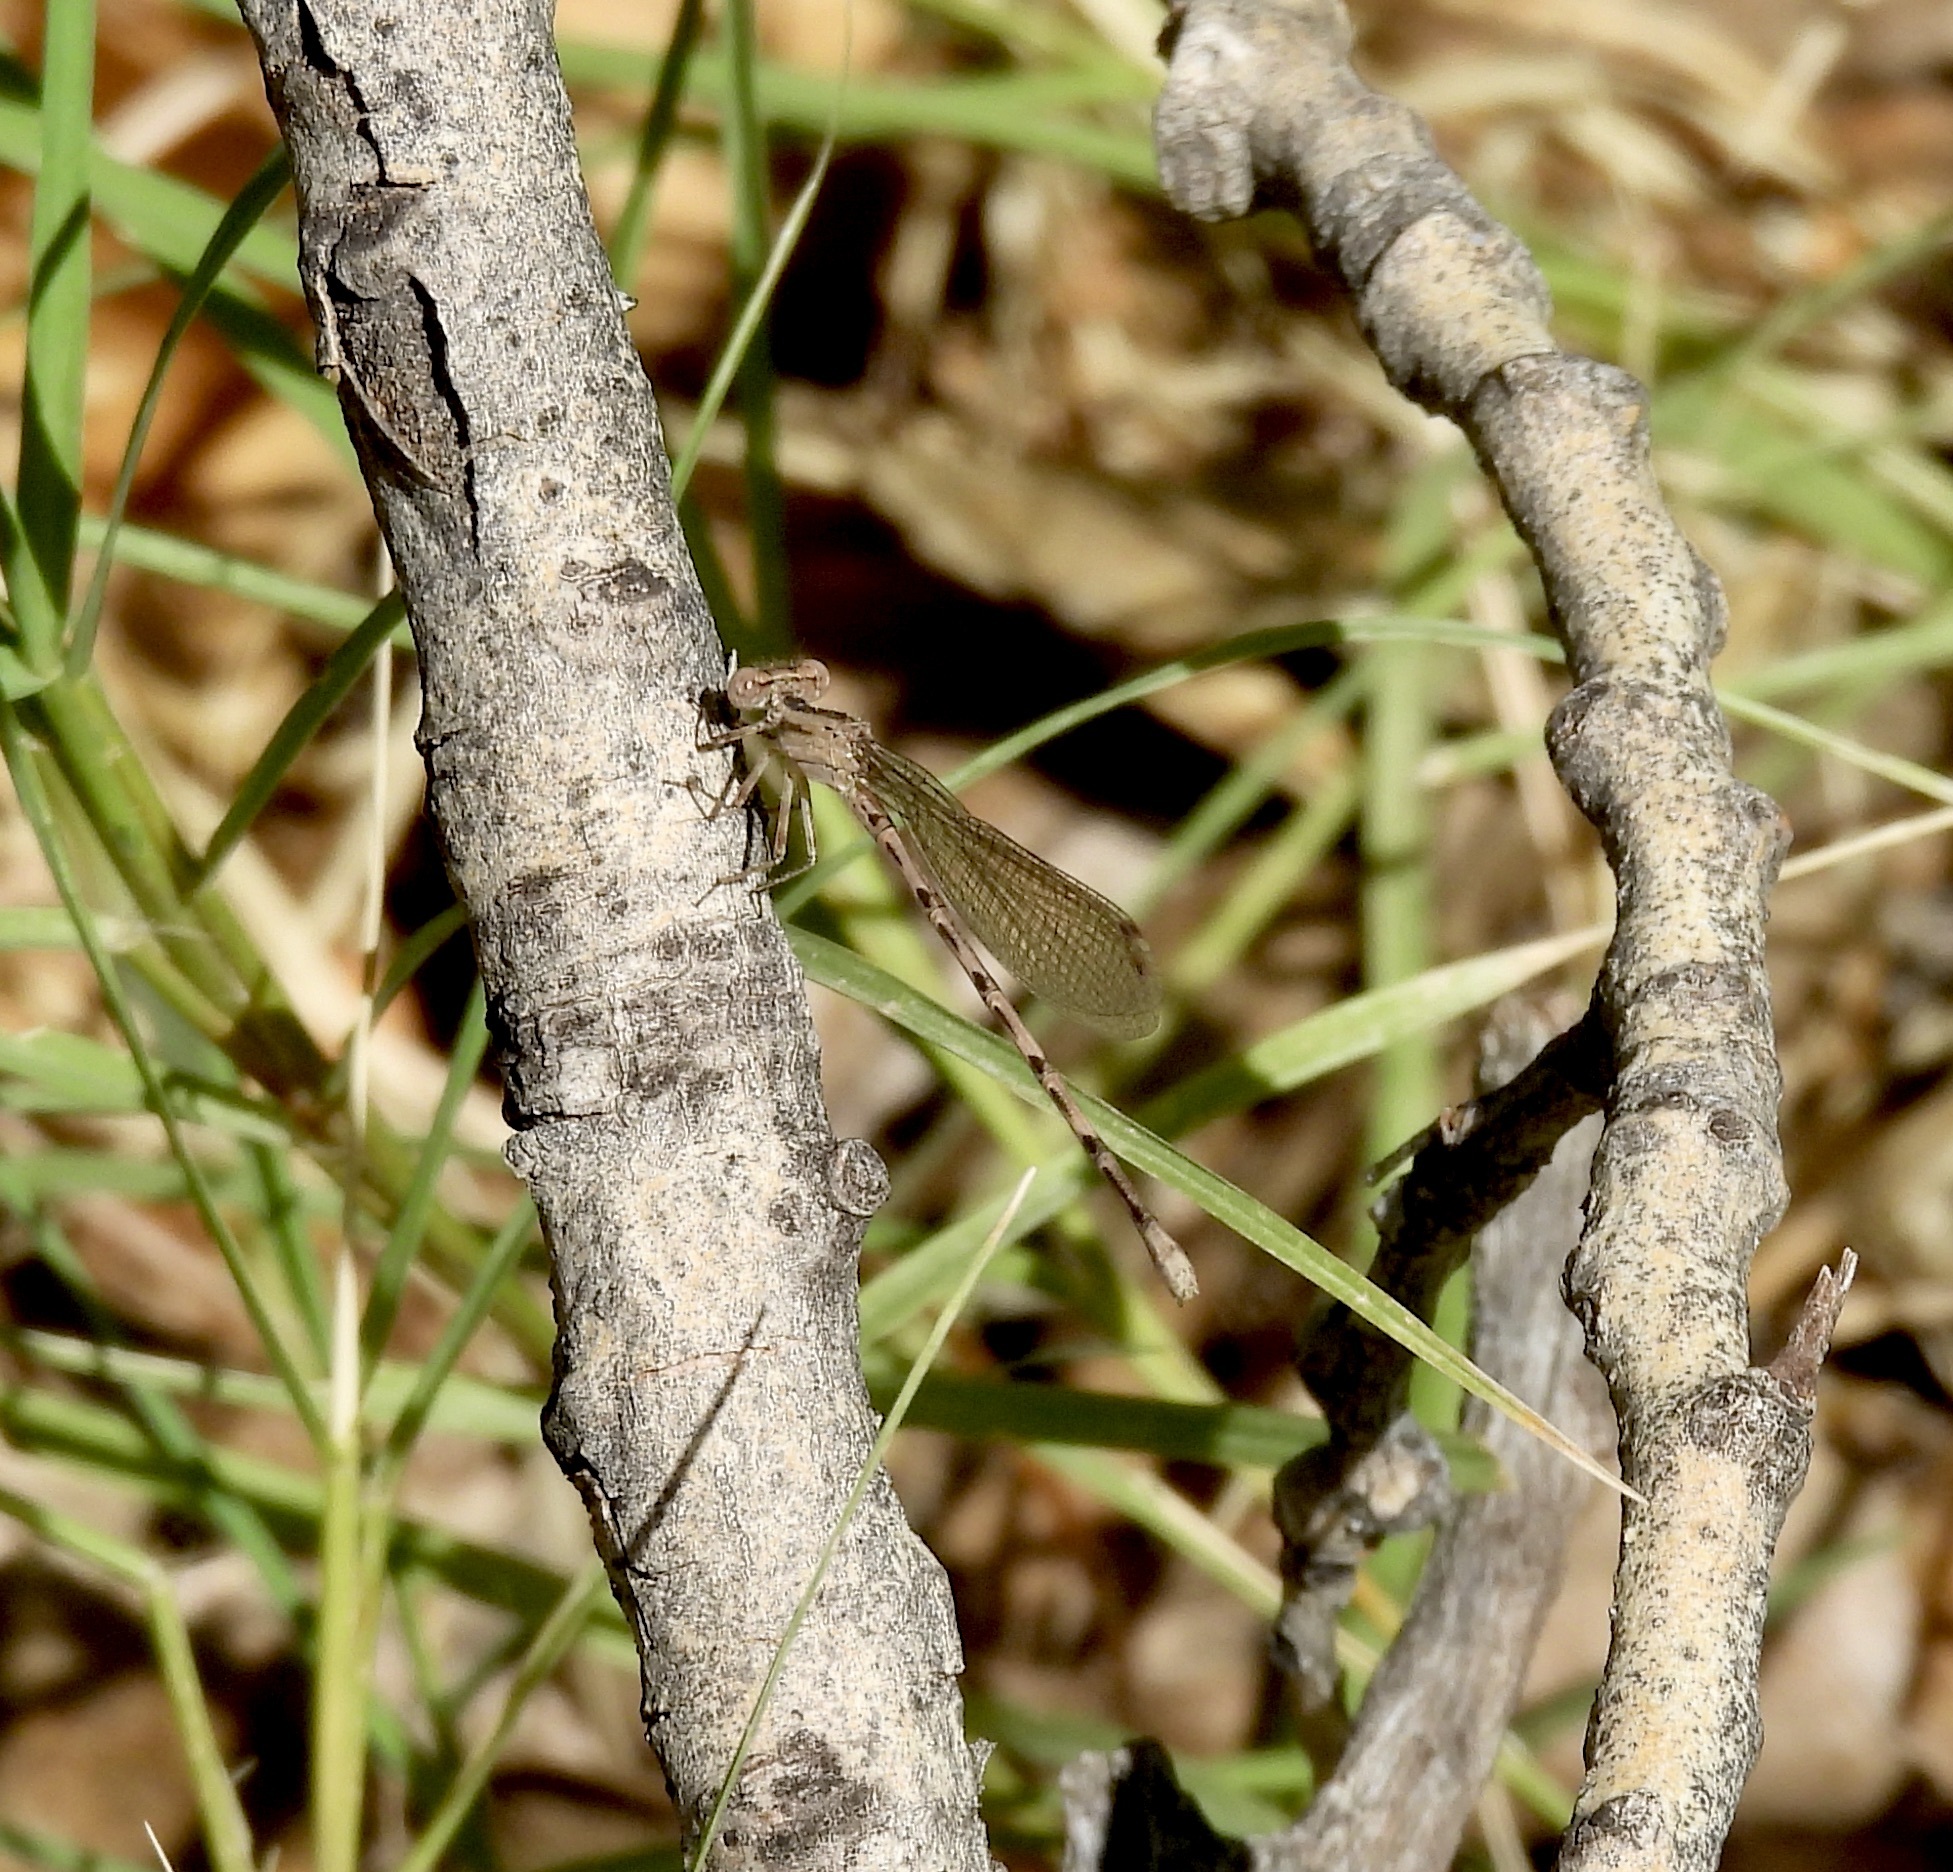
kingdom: Animalia
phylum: Arthropoda
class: Insecta
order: Odonata
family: Coenagrionidae
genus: Argia
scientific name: Argia immunda
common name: Kiowa dancer
